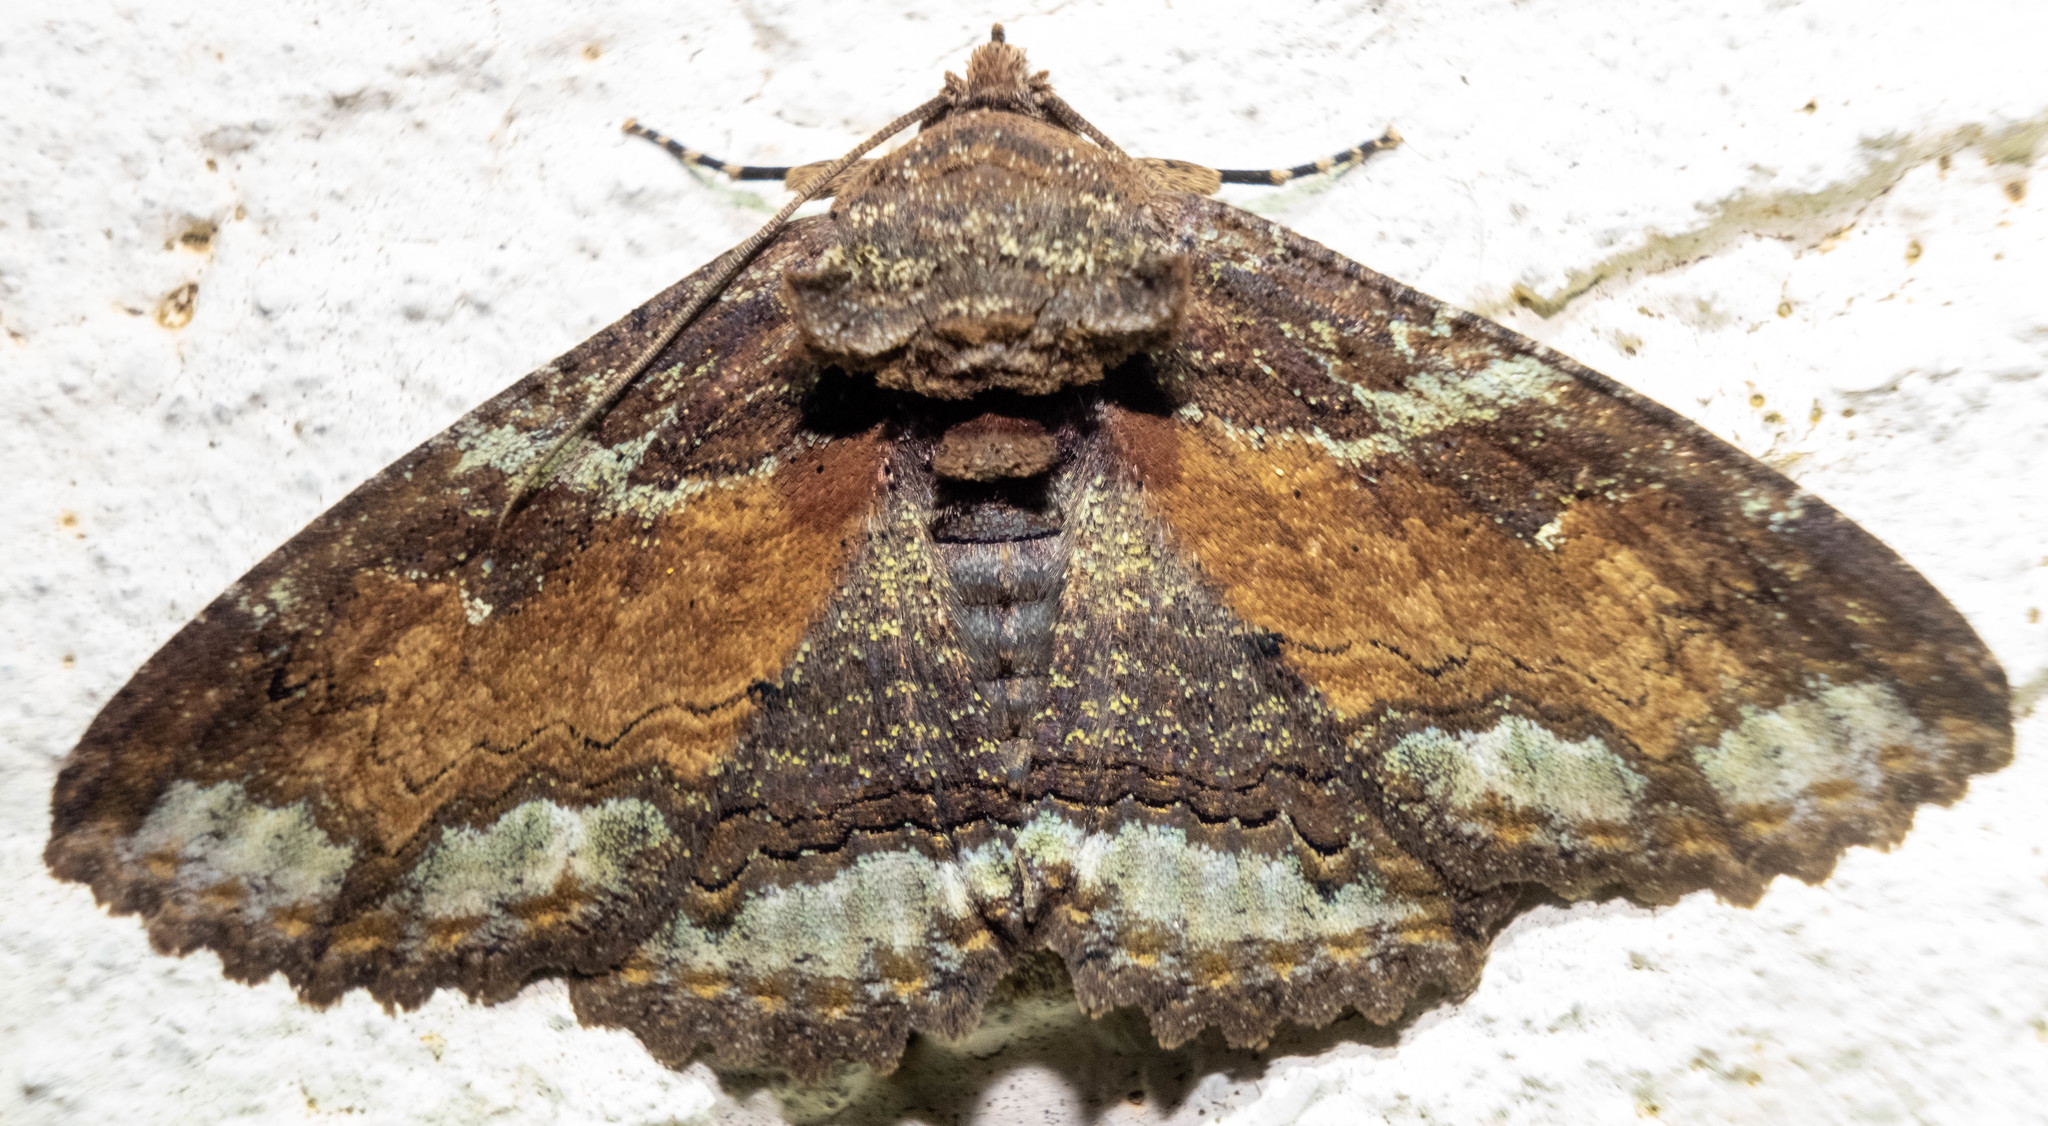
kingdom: Animalia
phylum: Arthropoda
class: Insecta
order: Lepidoptera
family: Erebidae
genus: Zale
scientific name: Zale lunata
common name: Lunate zale moth
